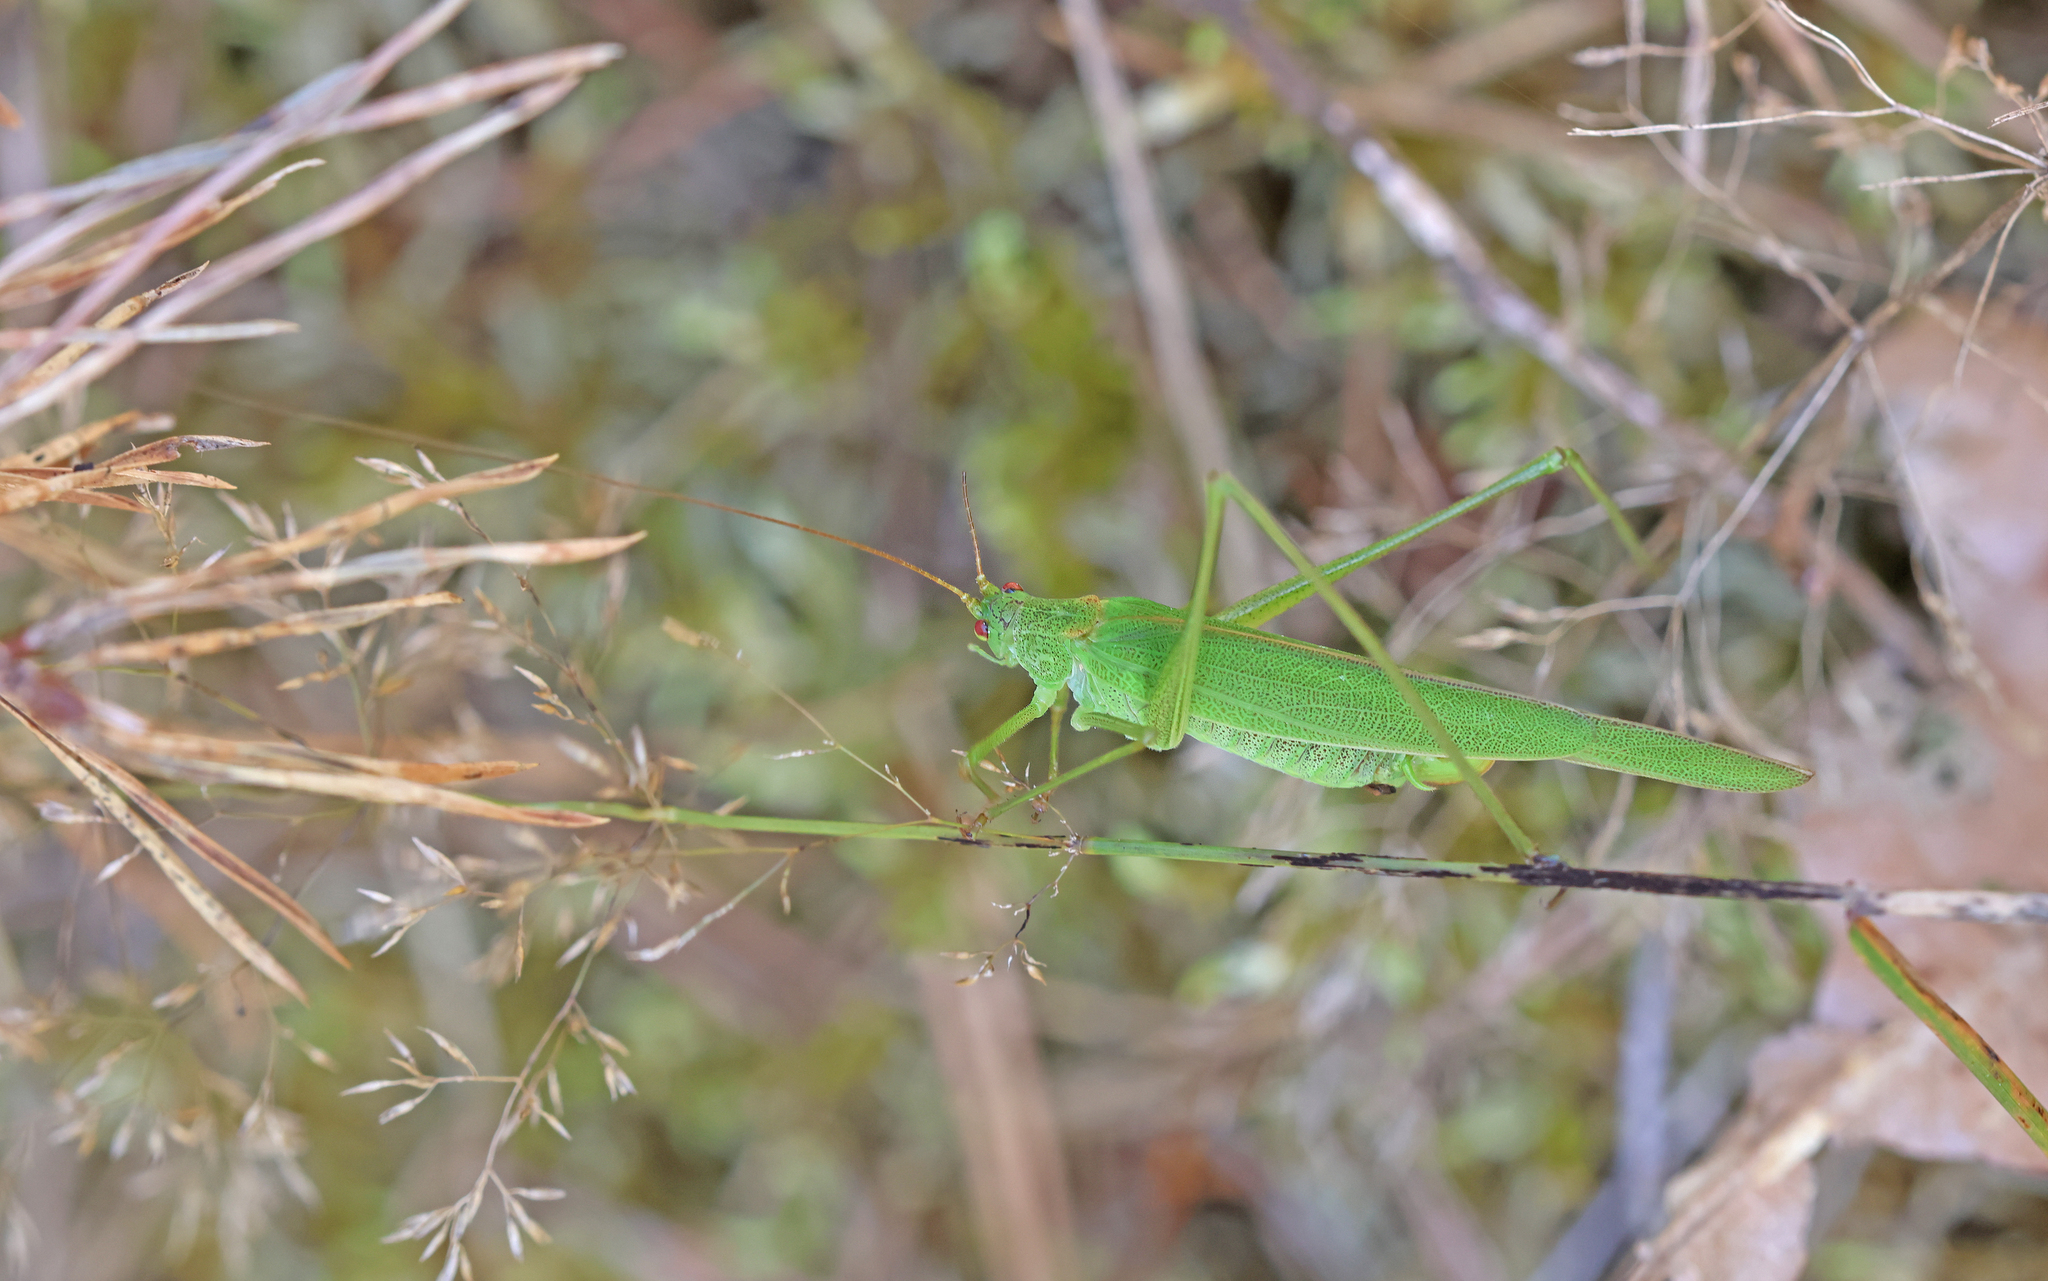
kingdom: Animalia
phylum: Arthropoda
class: Insecta
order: Orthoptera
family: Tettigoniidae
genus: Phaneroptera
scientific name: Phaneroptera falcata
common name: Sickle-bearing bush-cricket
